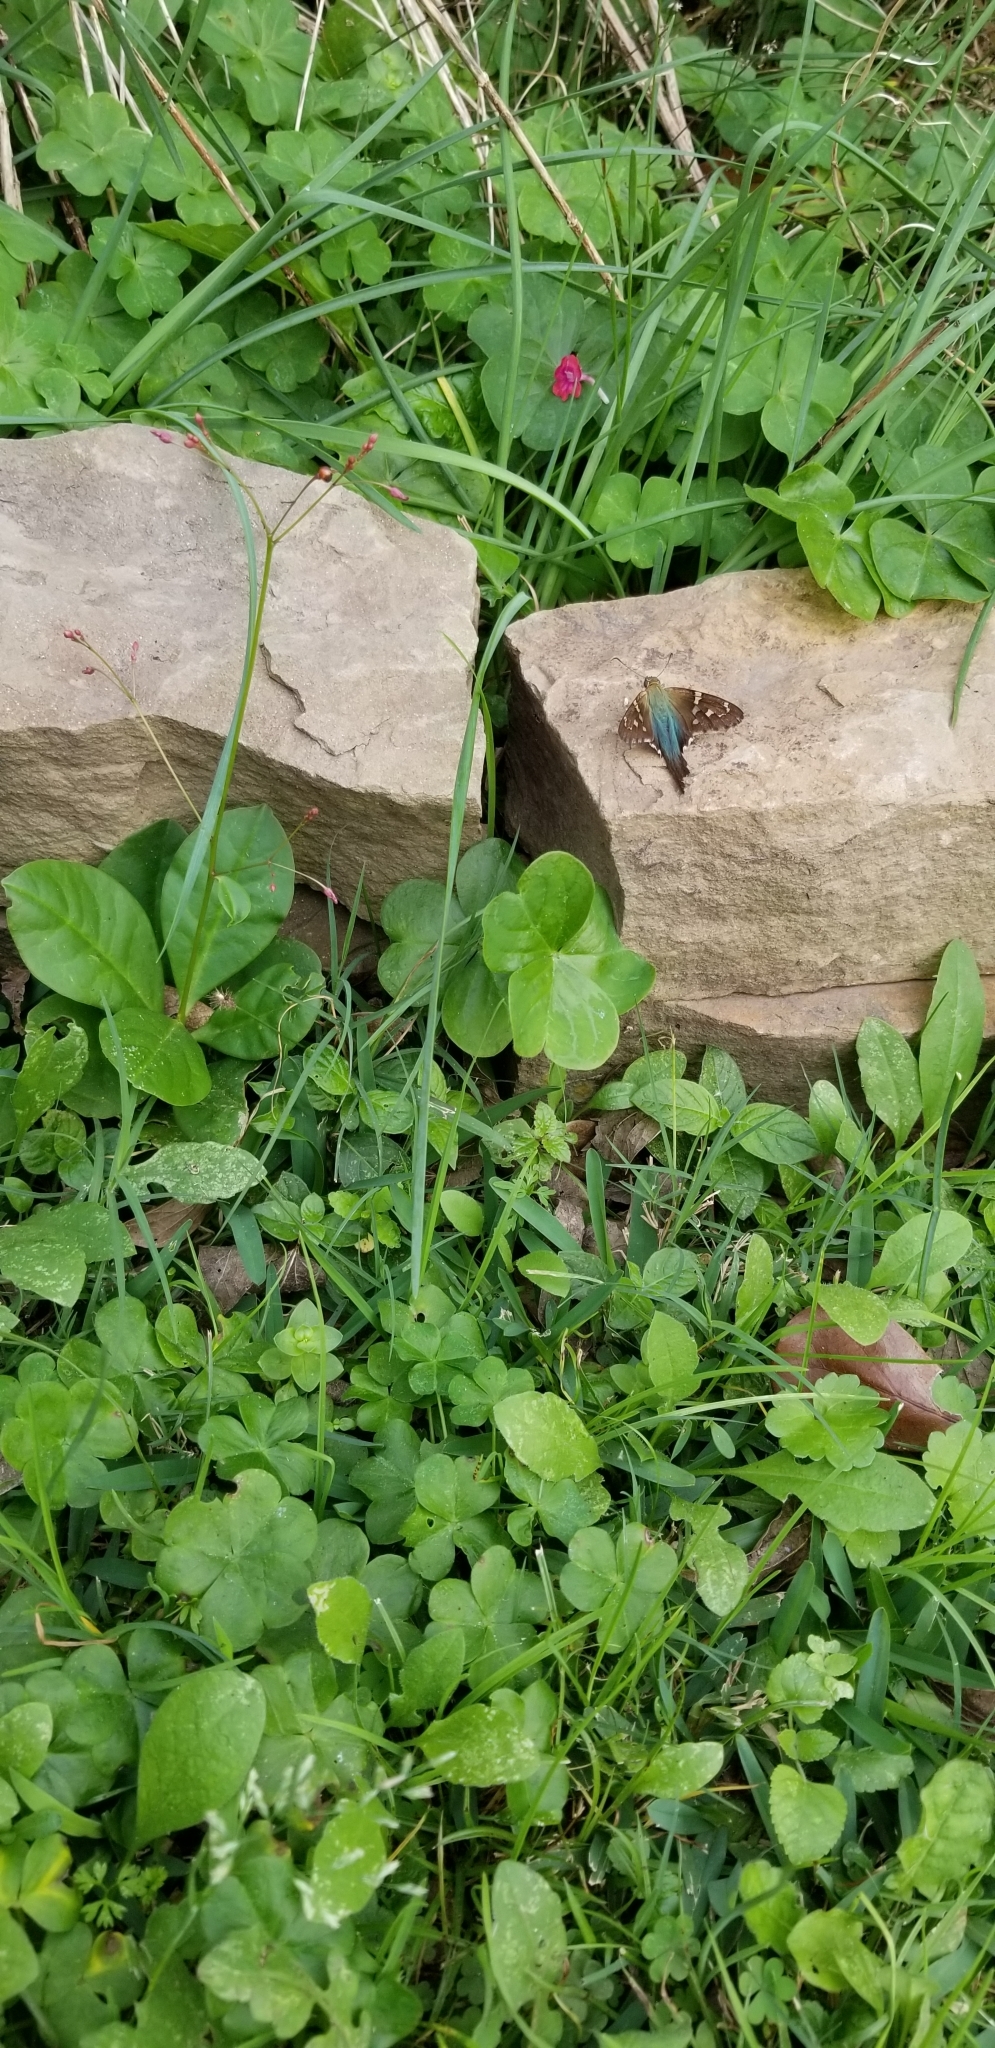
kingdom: Animalia
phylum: Arthropoda
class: Insecta
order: Lepidoptera
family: Hesperiidae
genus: Urbanus
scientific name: Urbanus proteus
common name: Long-tailed skipper
